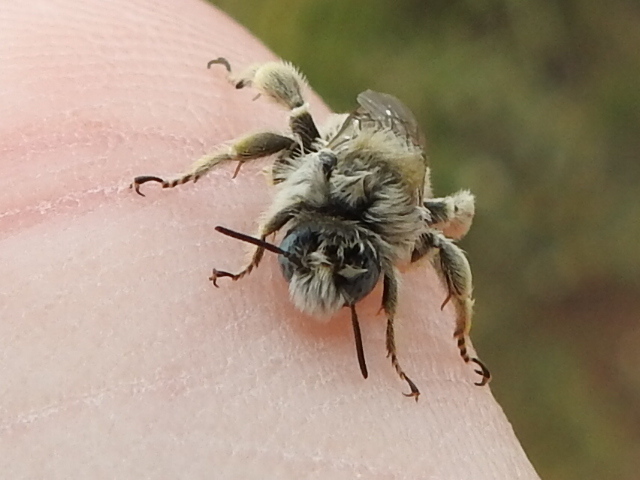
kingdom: Animalia
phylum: Arthropoda
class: Insecta
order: Hymenoptera
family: Apidae
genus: Diadasia
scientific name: Diadasia
